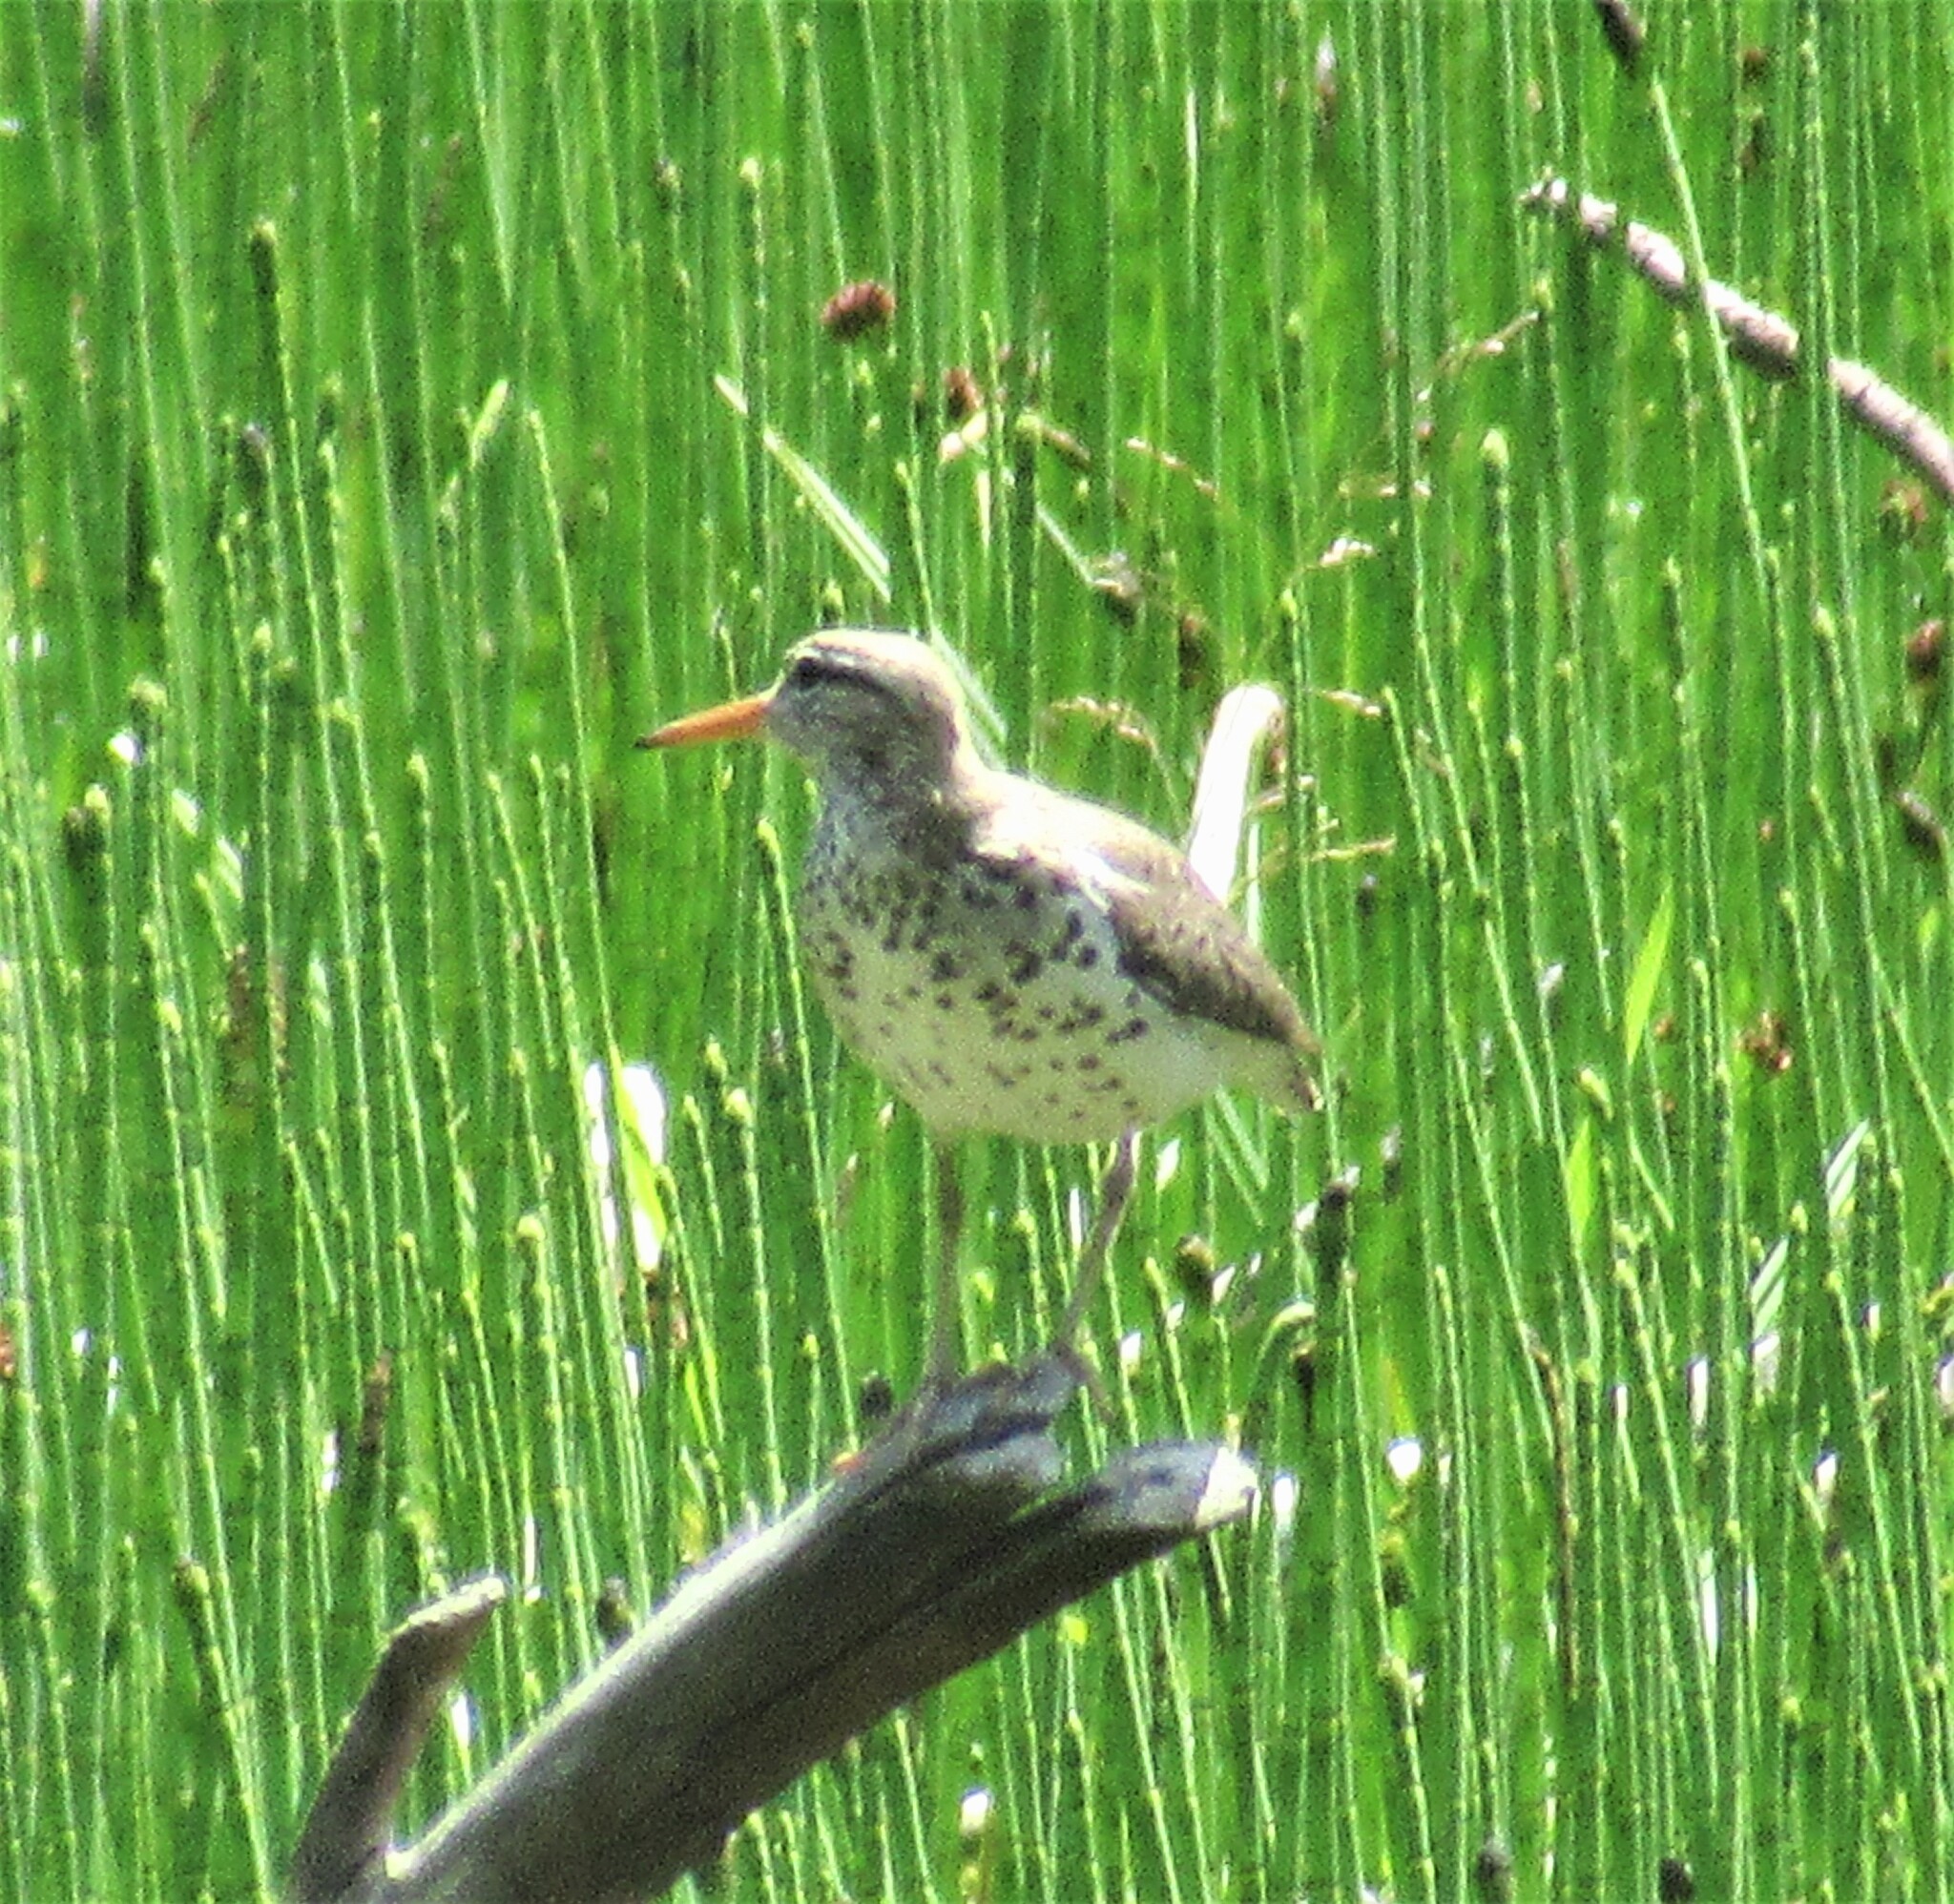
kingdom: Animalia
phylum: Chordata
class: Aves
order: Charadriiformes
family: Scolopacidae
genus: Actitis
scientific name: Actitis macularius
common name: Spotted sandpiper
